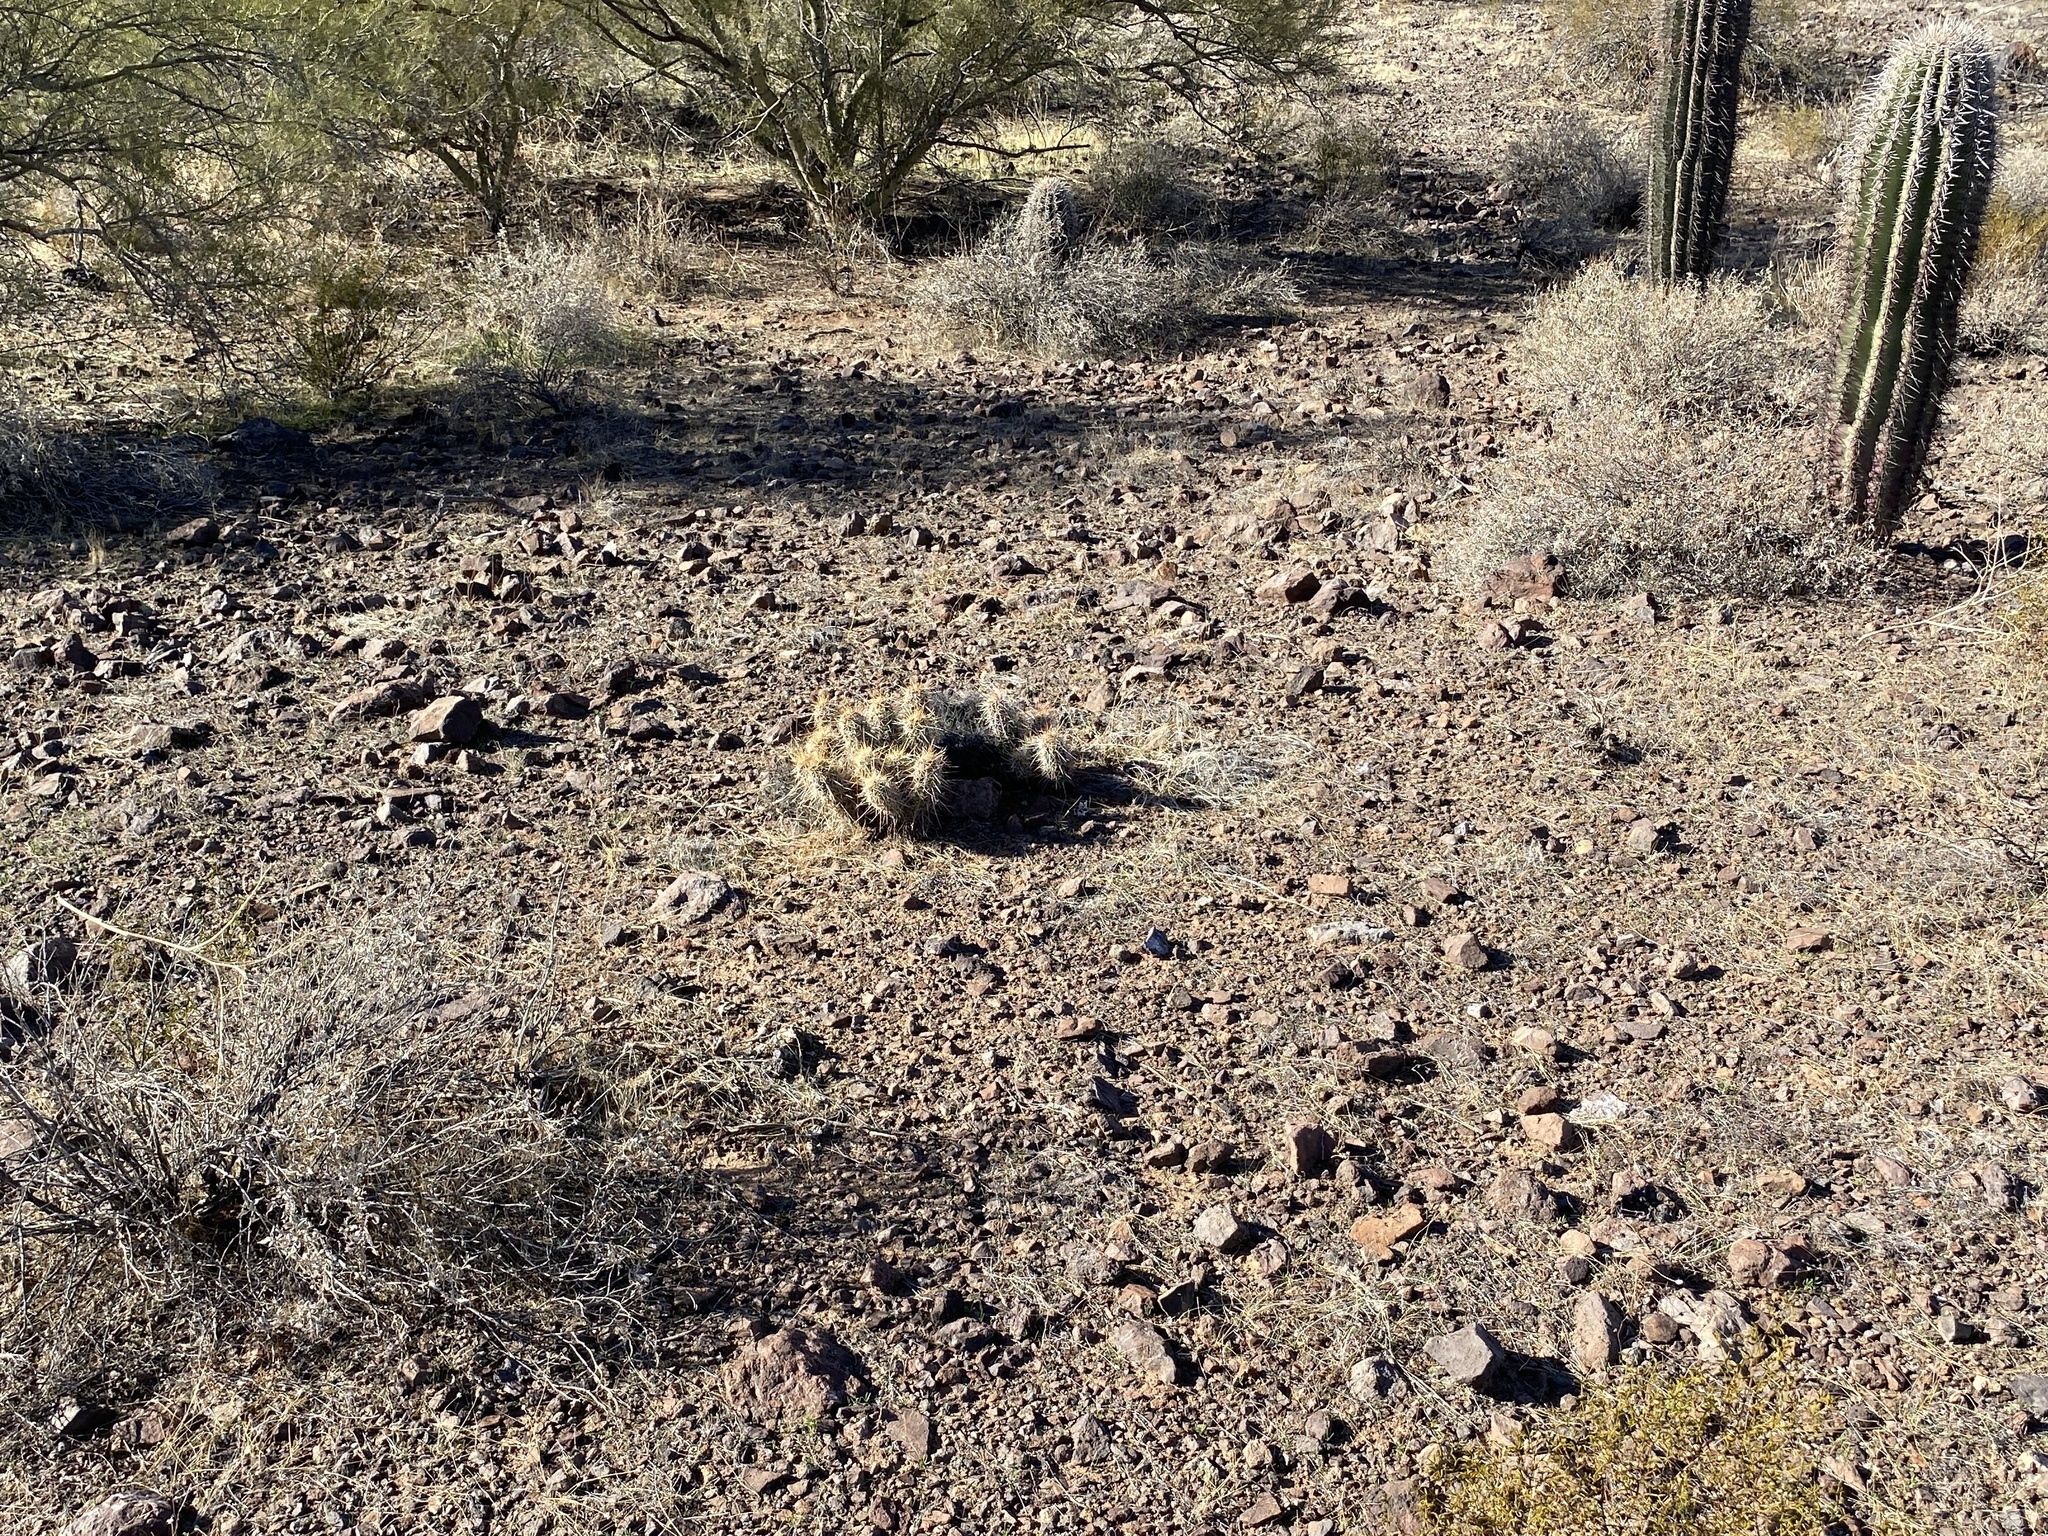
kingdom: Plantae
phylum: Tracheophyta
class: Magnoliopsida
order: Caryophyllales
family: Cactaceae
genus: Echinocereus
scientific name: Echinocereus engelmannii
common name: Engelmann's hedgehog cactus
